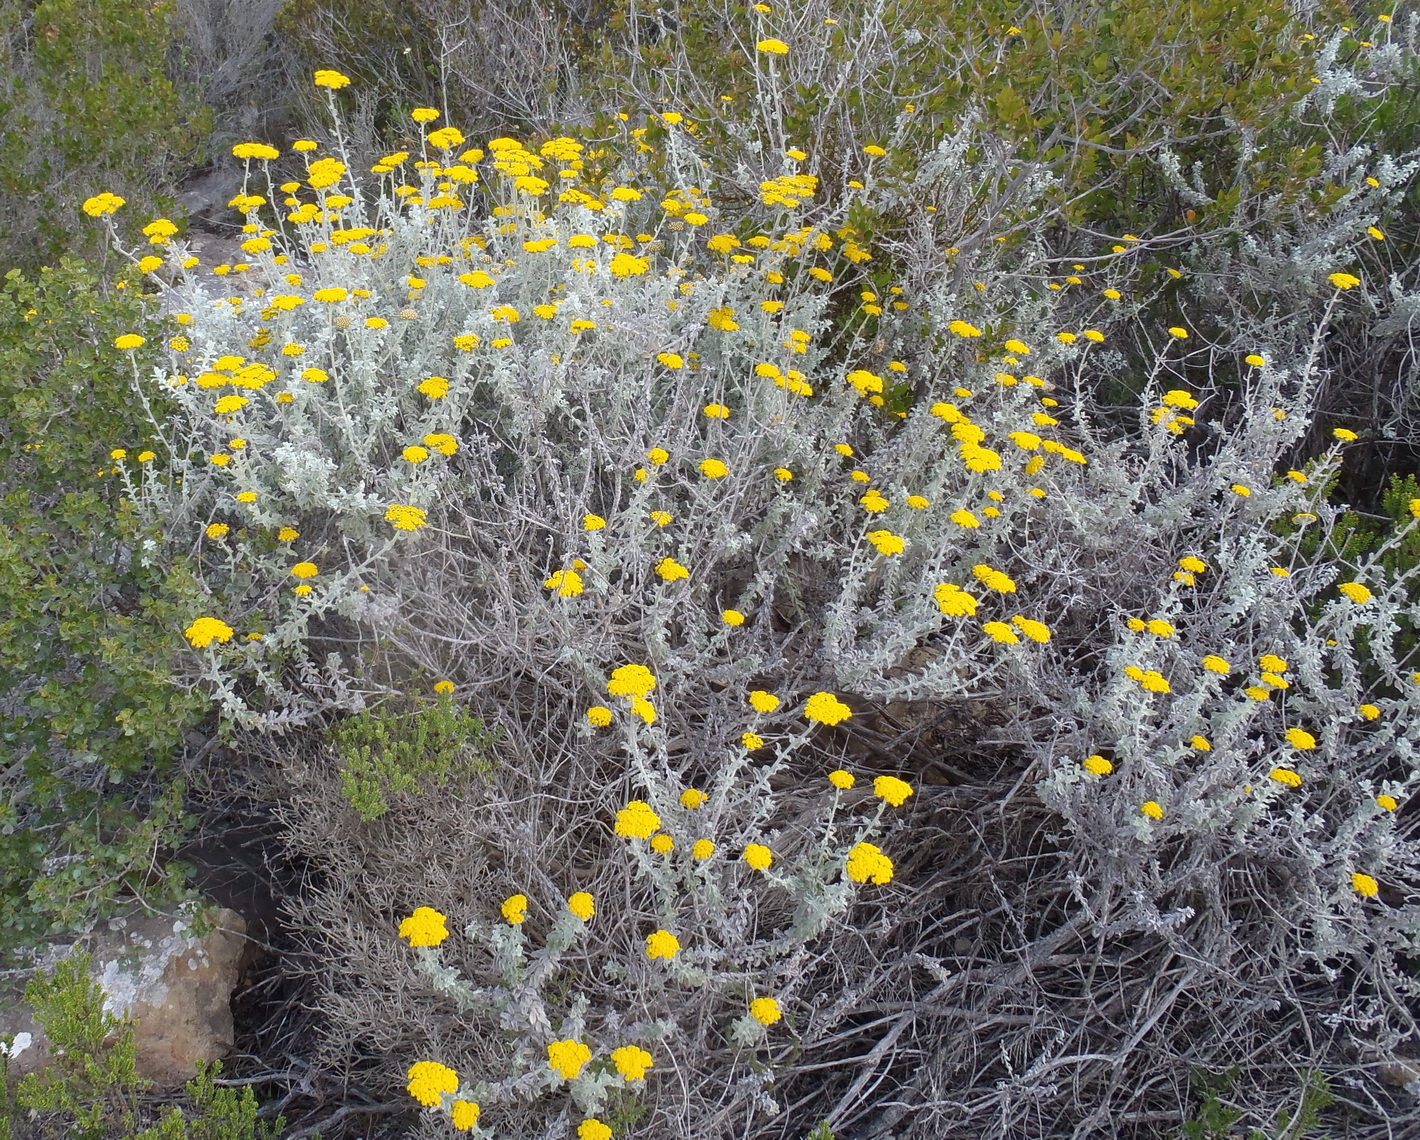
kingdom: Plantae
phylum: Tracheophyta
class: Magnoliopsida
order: Asterales
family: Asteraceae
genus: Helichrysum
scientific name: Helichrysum dasyanthum
